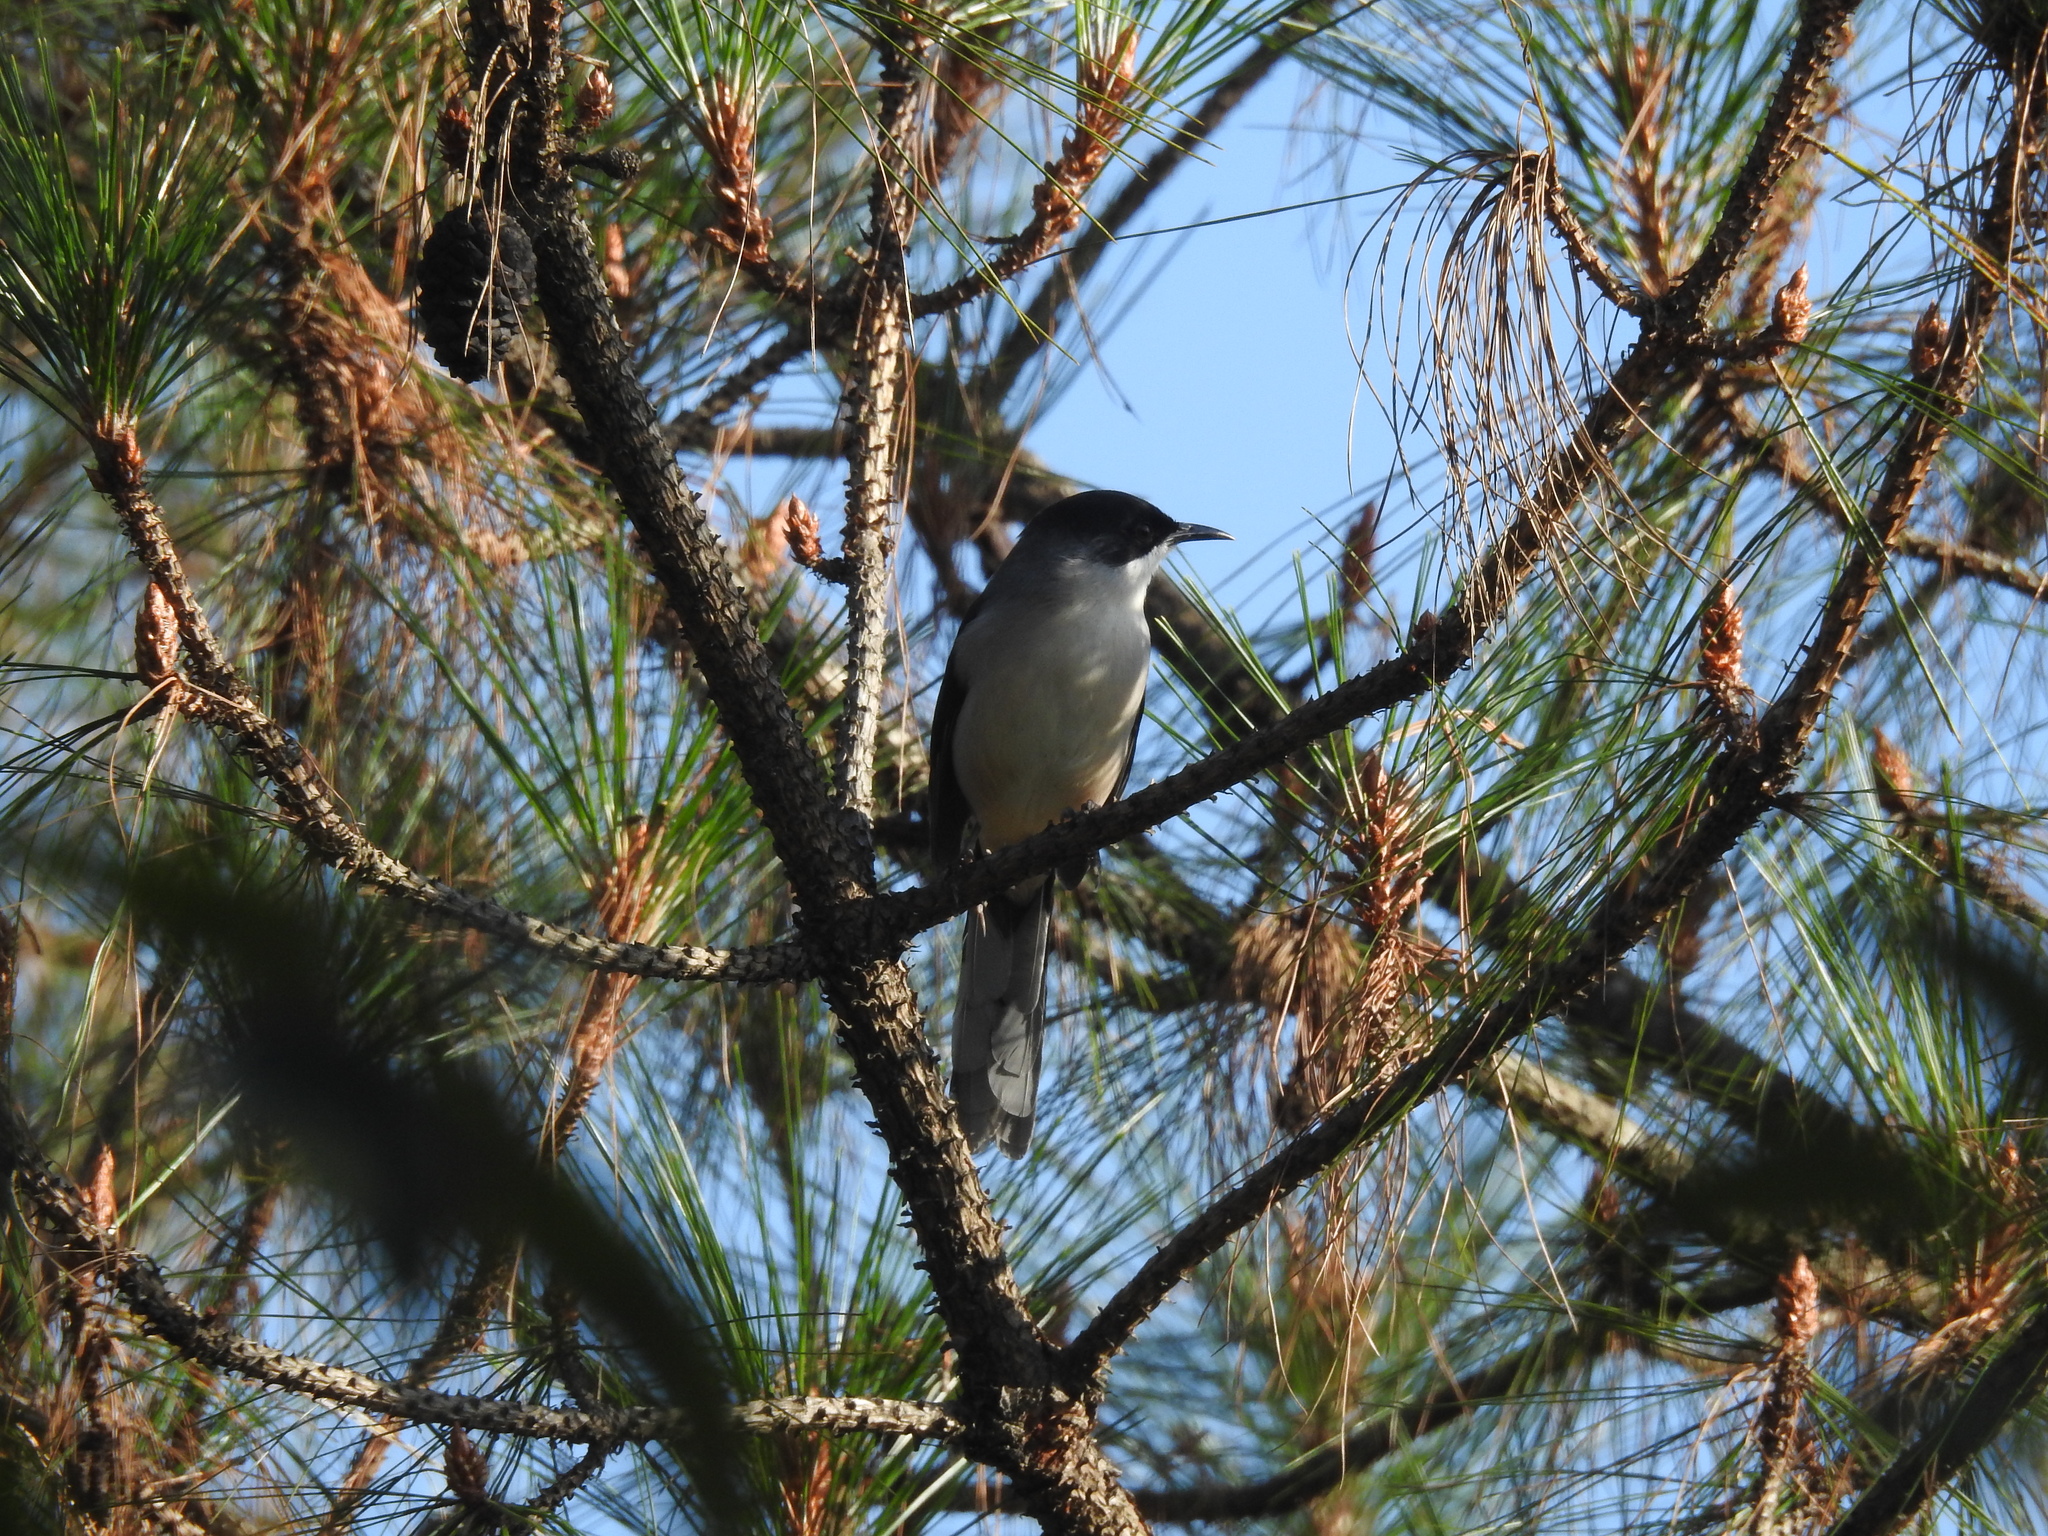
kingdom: Animalia
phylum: Chordata
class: Aves
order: Passeriformes
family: Leiothrichidae
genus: Heterophasia
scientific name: Heterophasia gracilis
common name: Grey sibia
